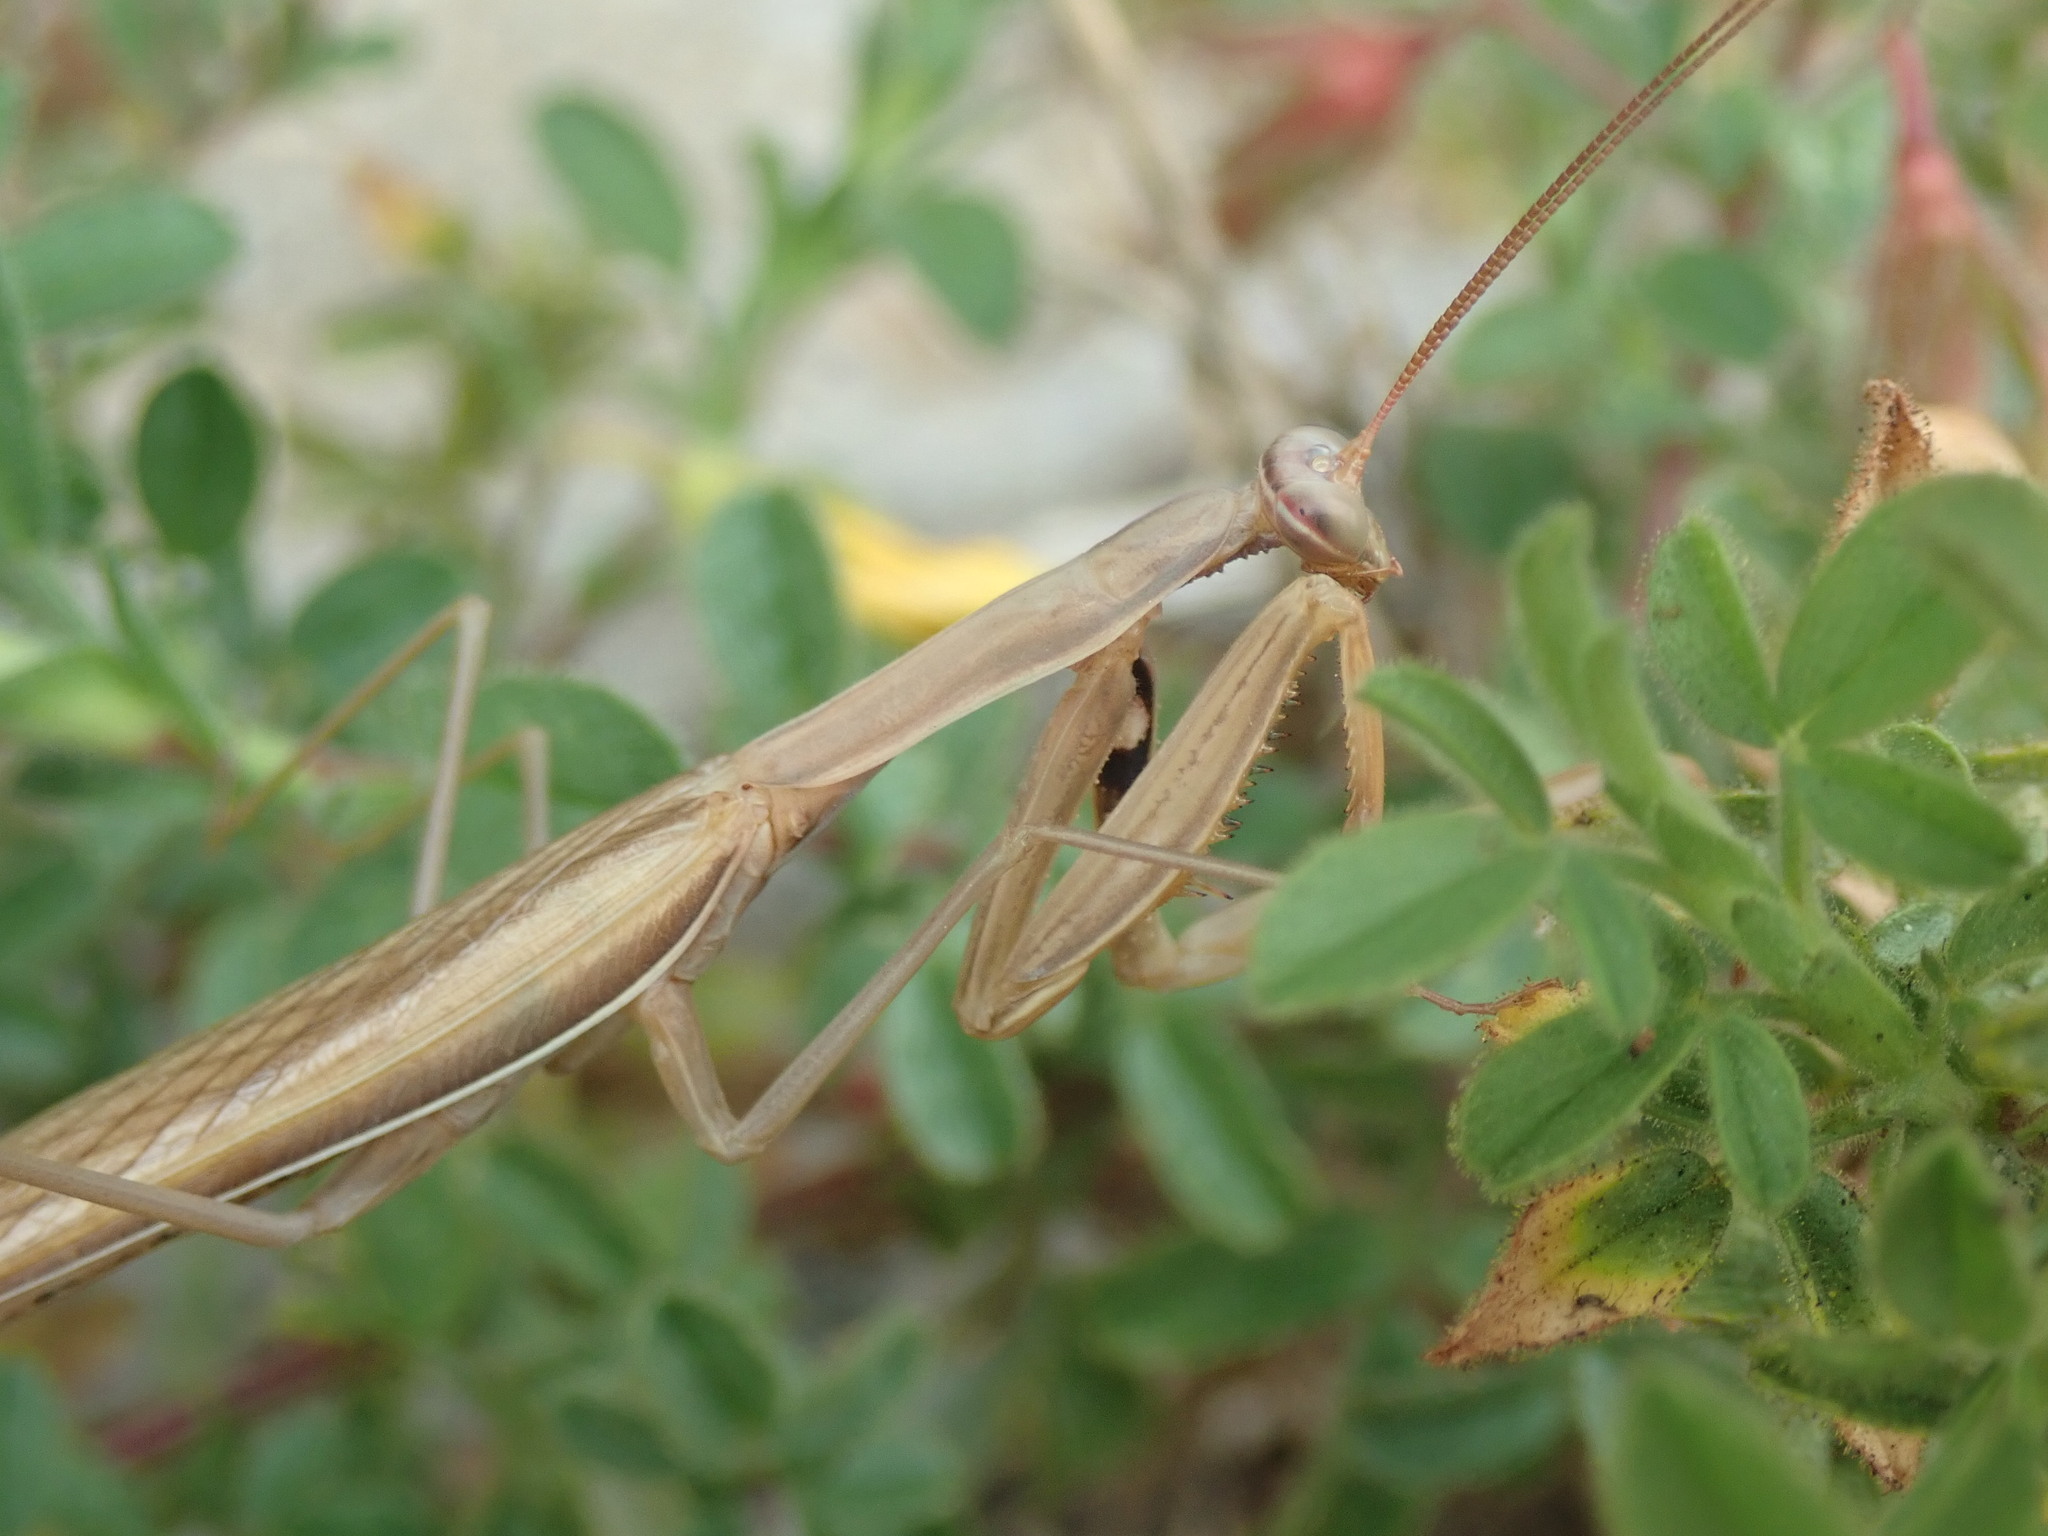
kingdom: Animalia
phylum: Arthropoda
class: Insecta
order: Mantodea
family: Mantidae
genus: Mantis
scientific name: Mantis religiosa
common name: Praying mantis
